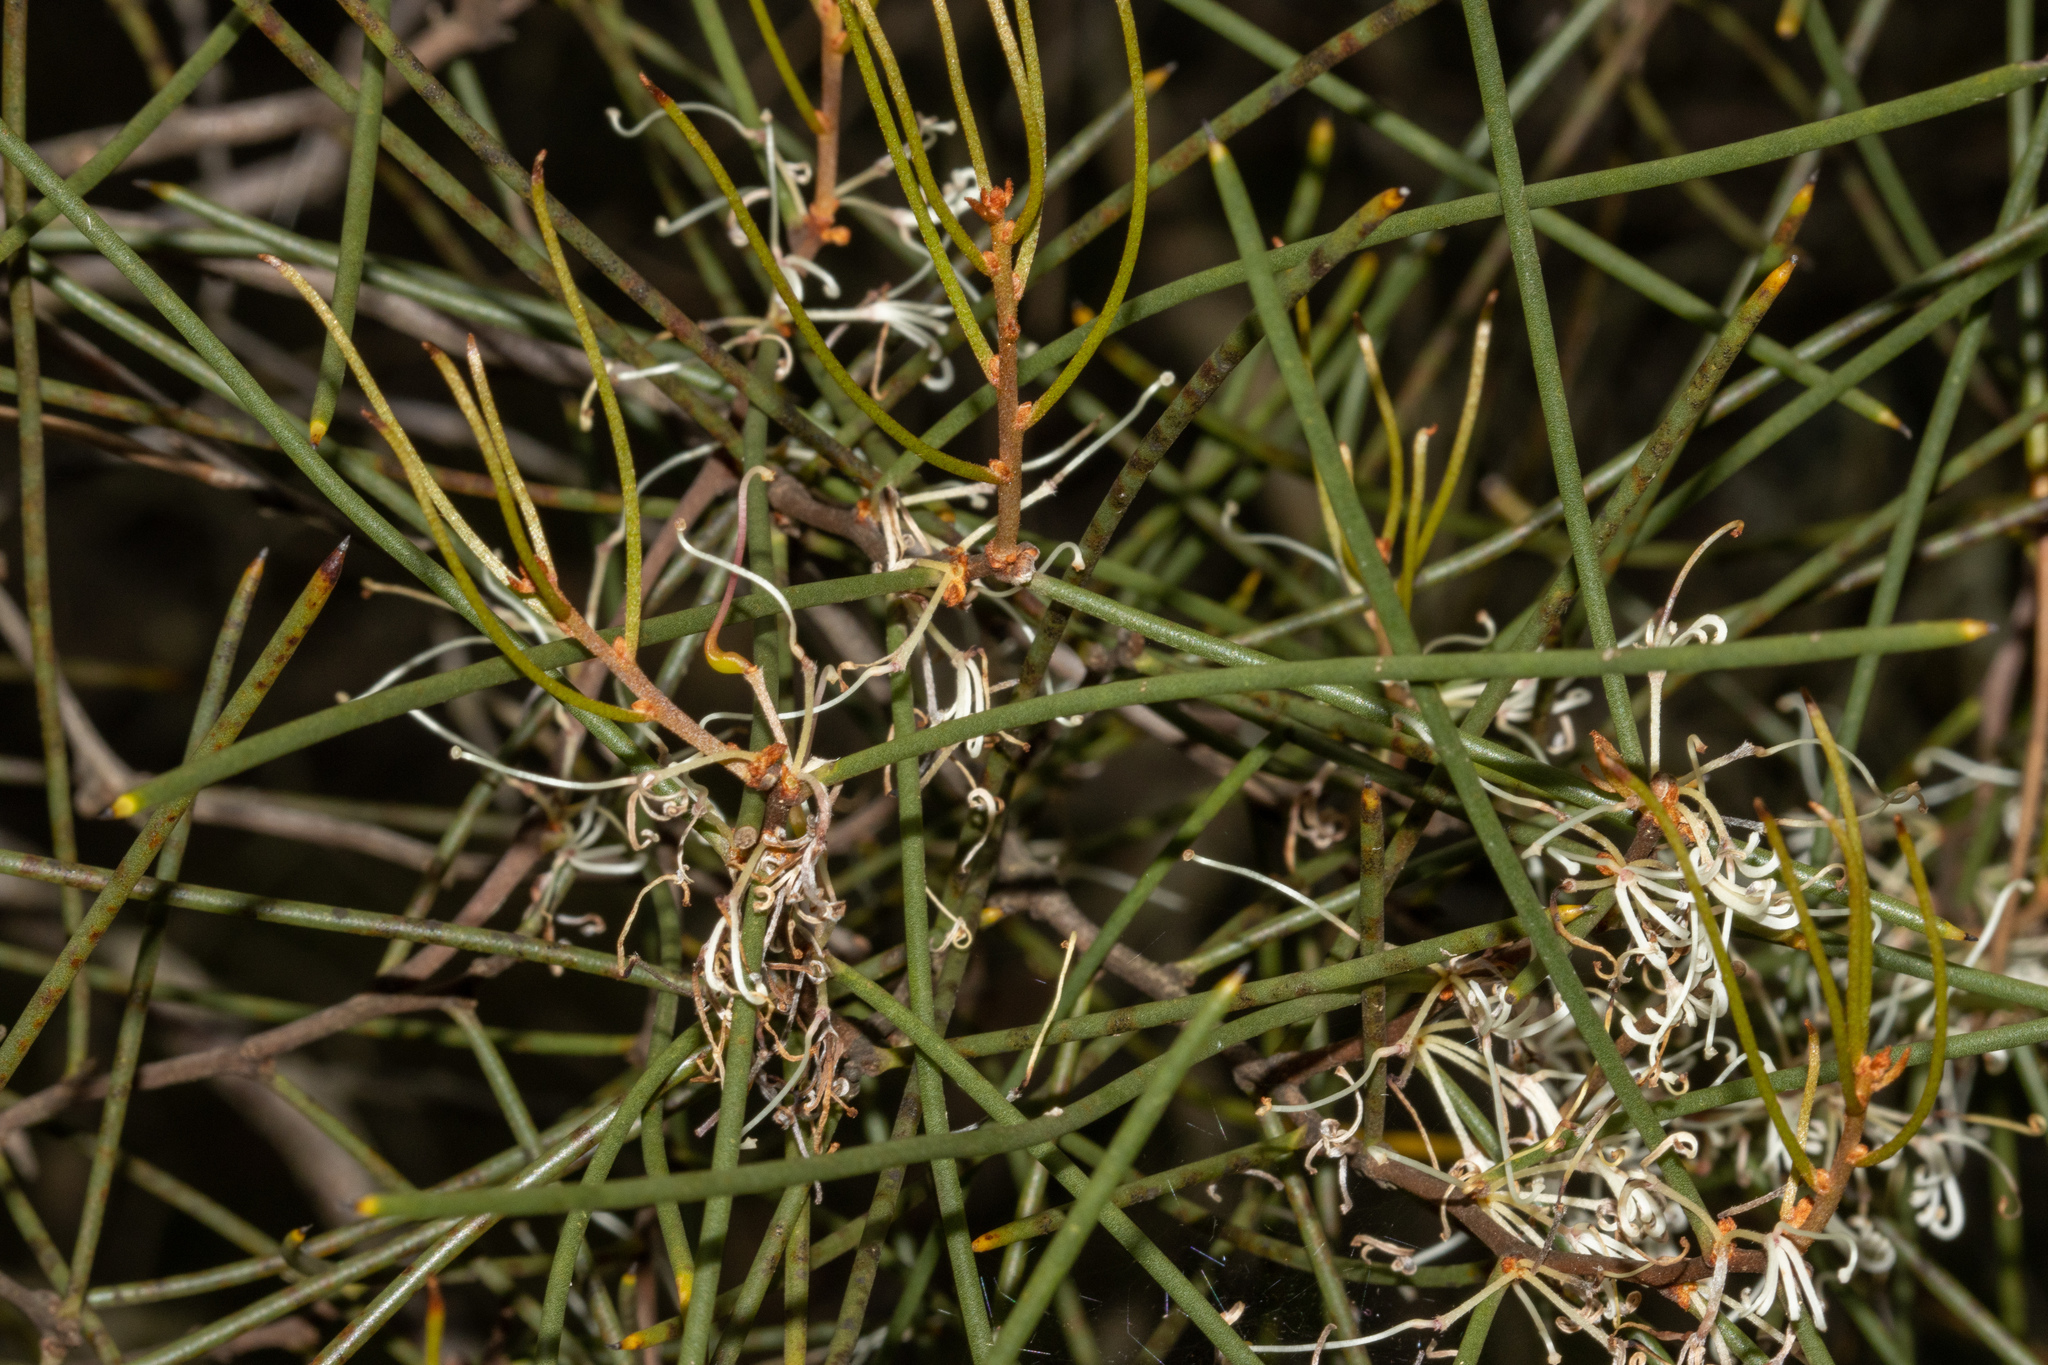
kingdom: Plantae
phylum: Tracheophyta
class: Magnoliopsida
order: Proteales
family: Proteaceae
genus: Hakea
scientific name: Hakea rostrata
